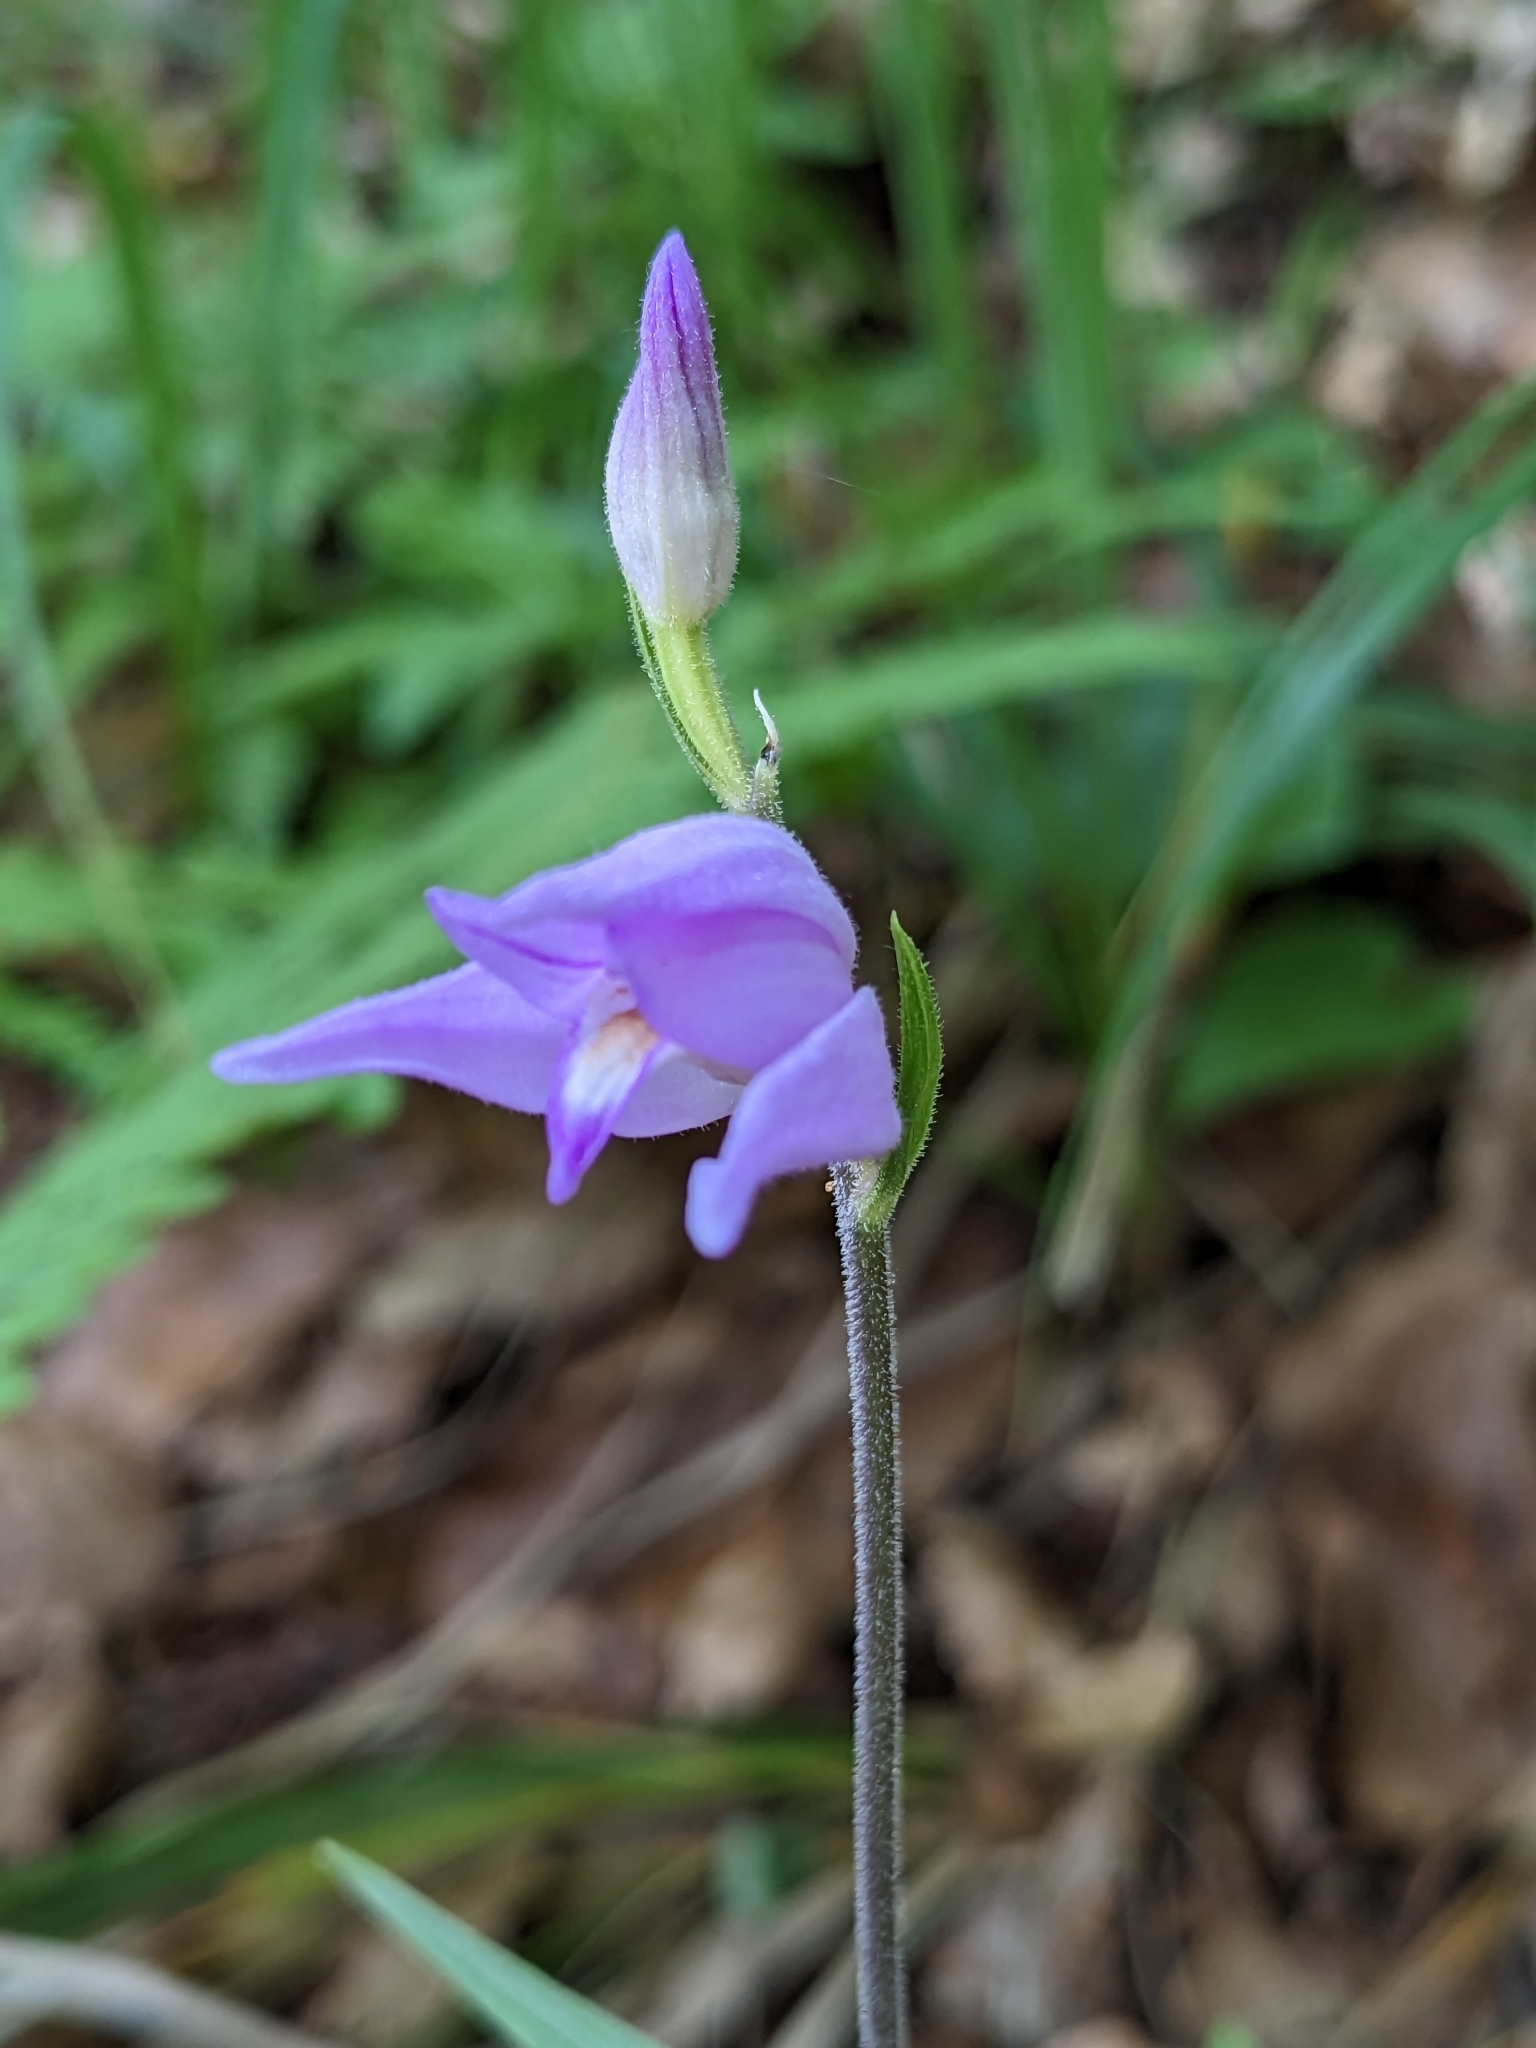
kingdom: Plantae
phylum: Tracheophyta
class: Liliopsida
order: Asparagales
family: Orchidaceae
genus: Cephalanthera
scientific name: Cephalanthera rubra
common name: Red helleborine
